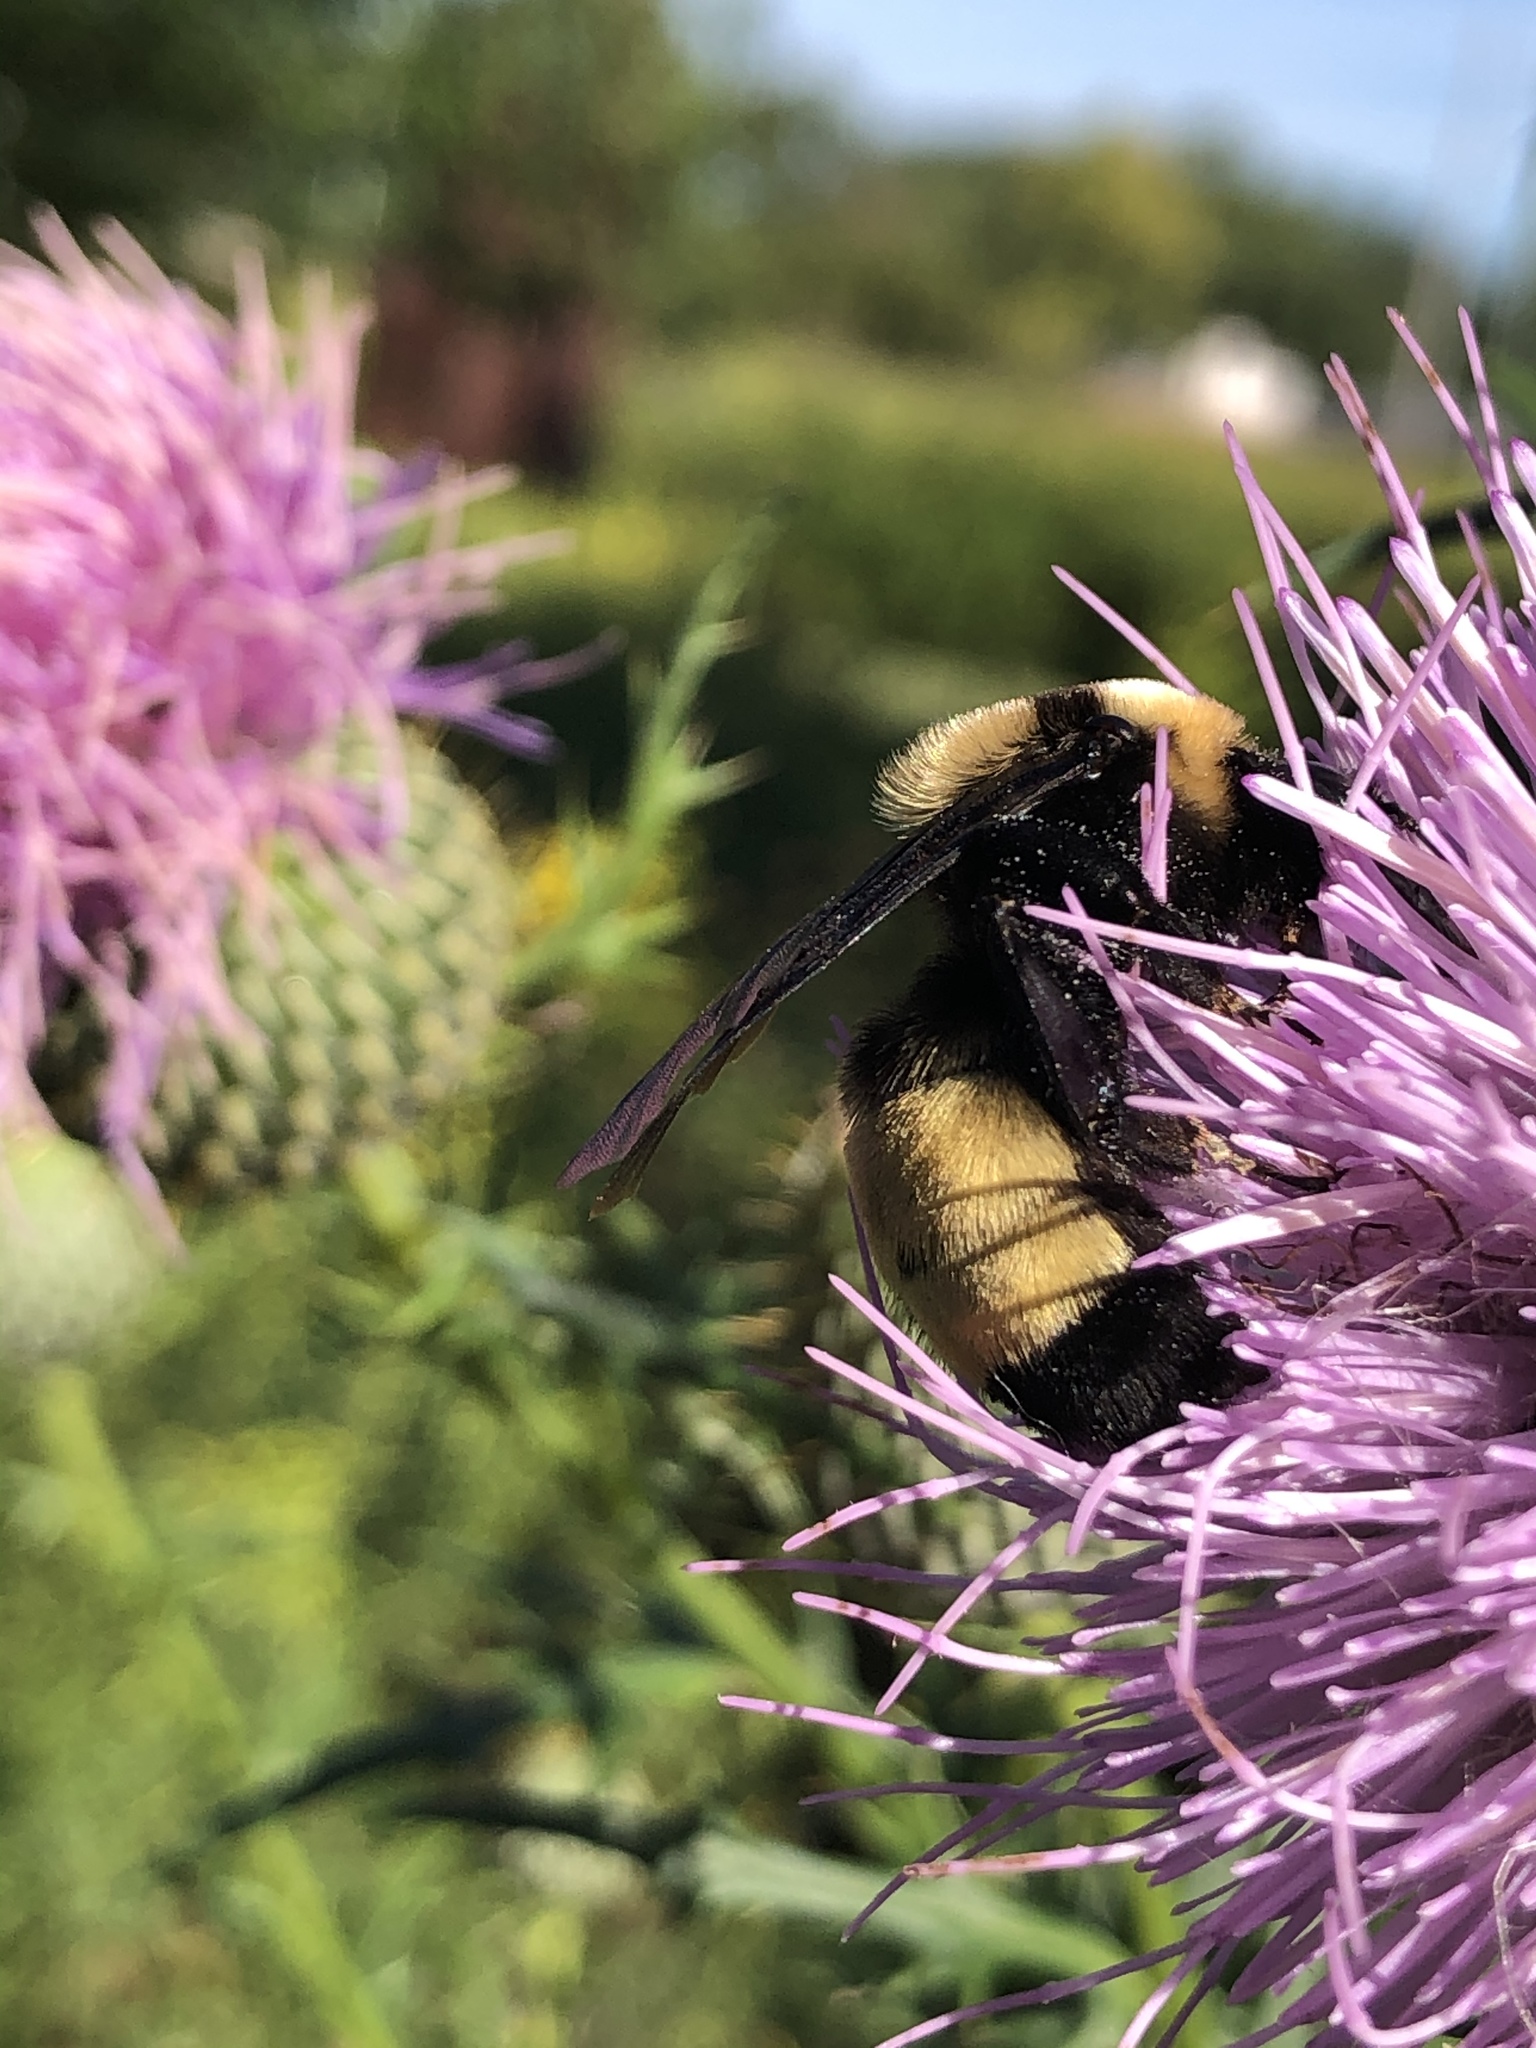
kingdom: Animalia
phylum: Arthropoda
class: Insecta
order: Hymenoptera
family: Apidae
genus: Bombus
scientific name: Bombus auricomus
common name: Black and gold bumble bee
